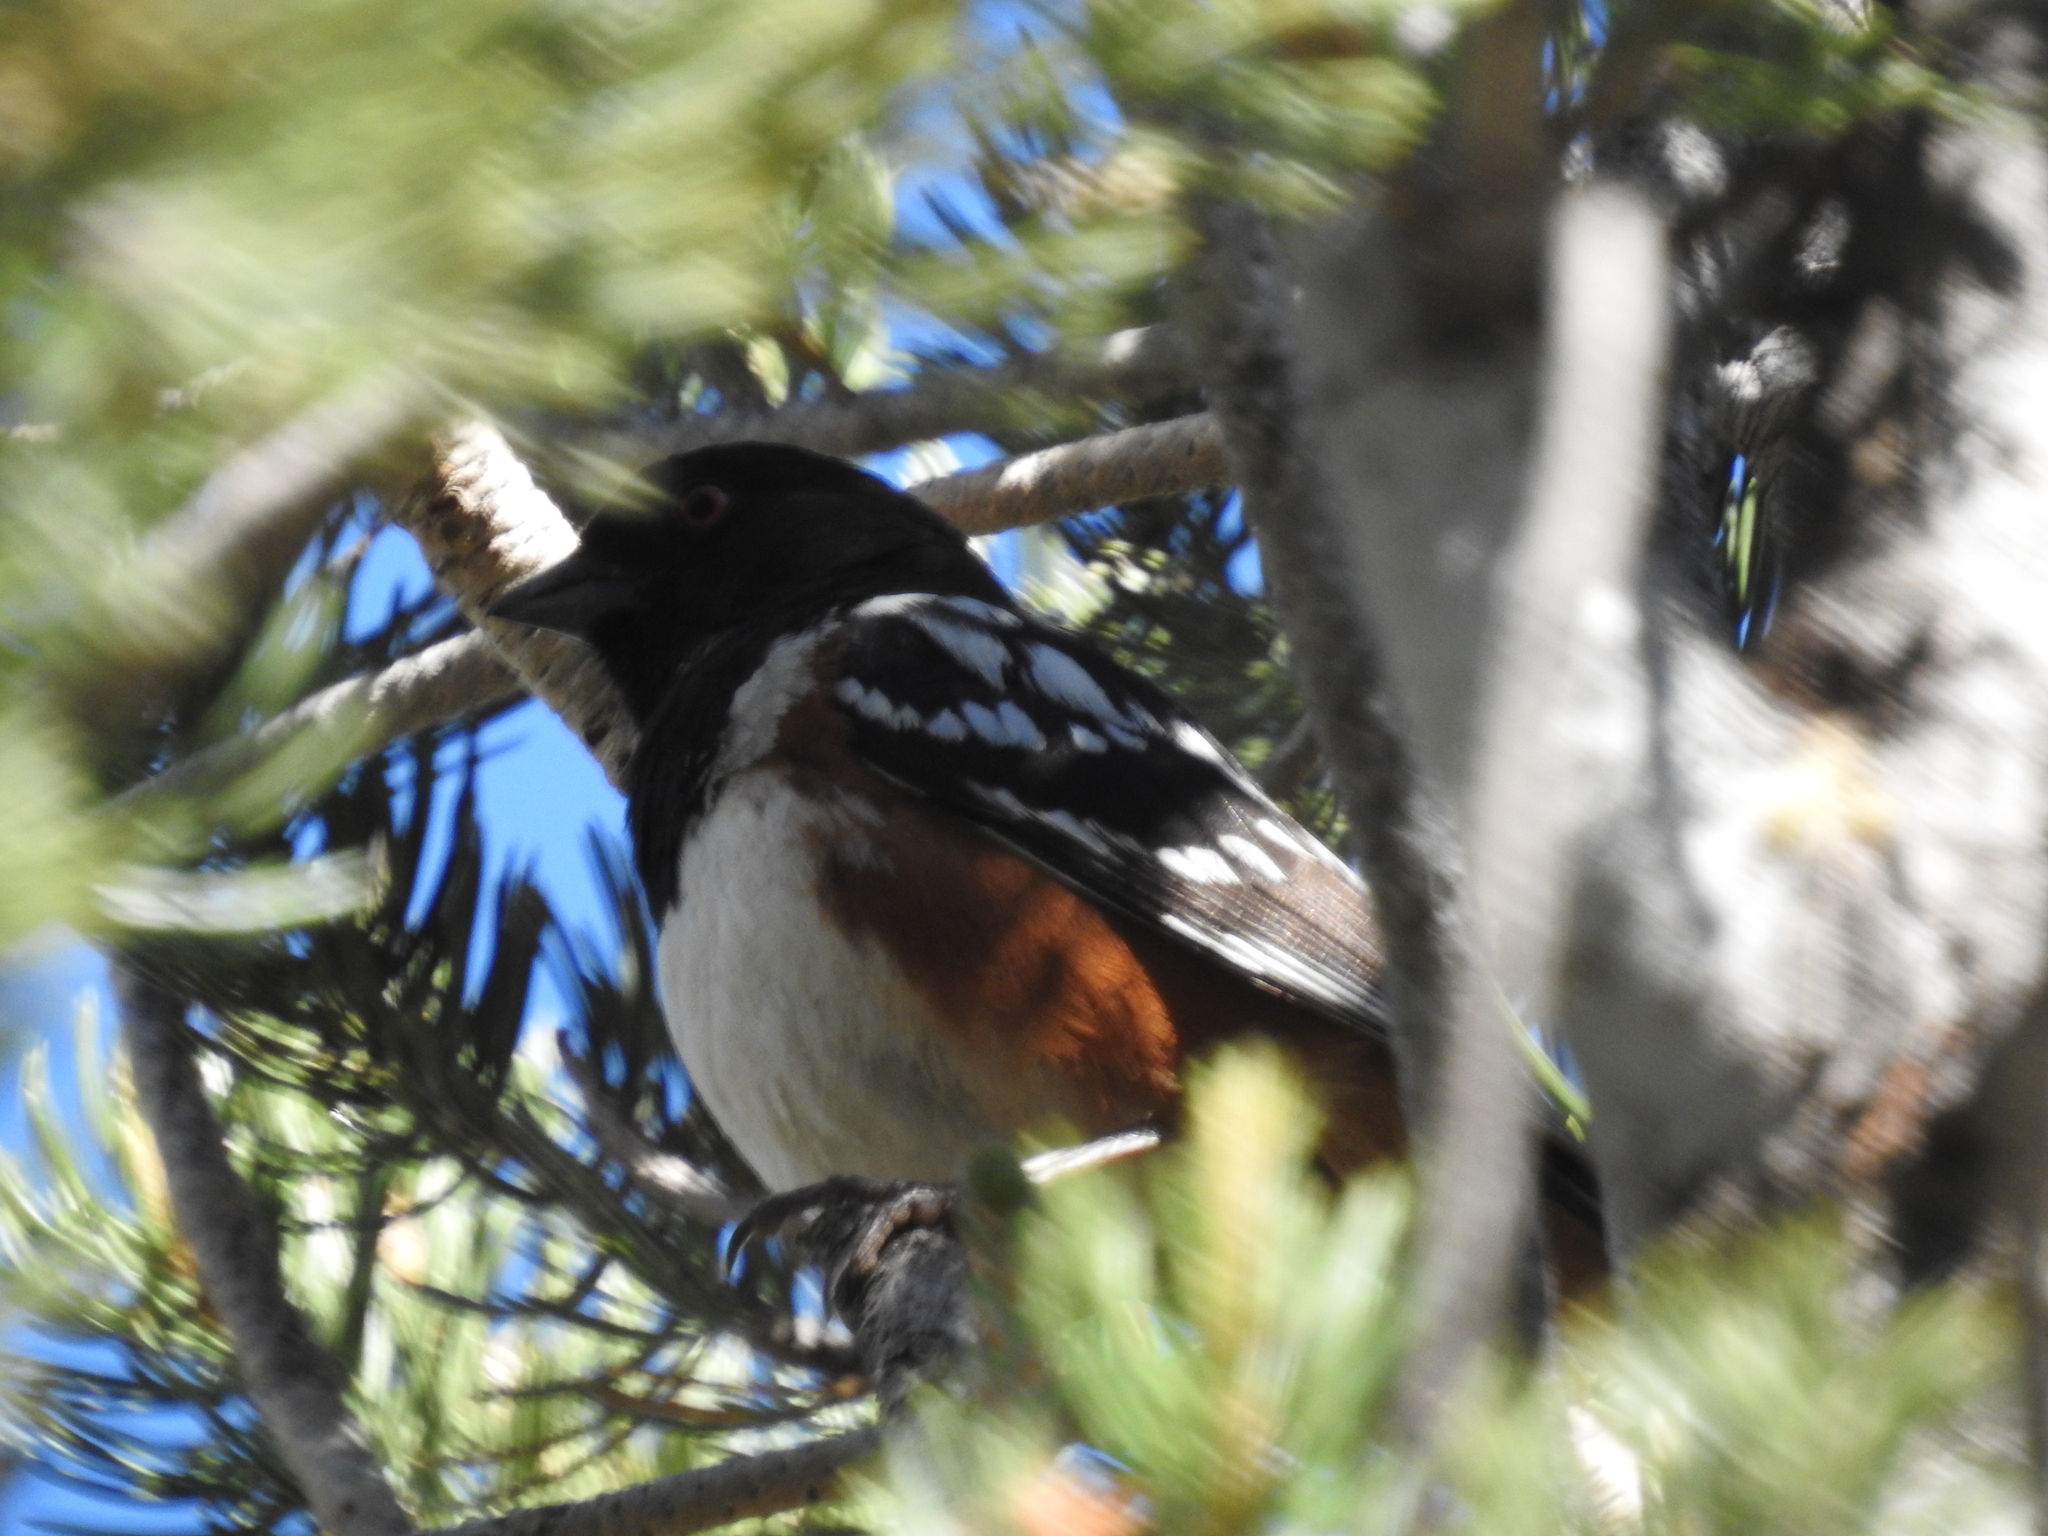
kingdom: Animalia
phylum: Chordata
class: Aves
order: Passeriformes
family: Passerellidae
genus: Pipilo
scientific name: Pipilo maculatus
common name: Spotted towhee
